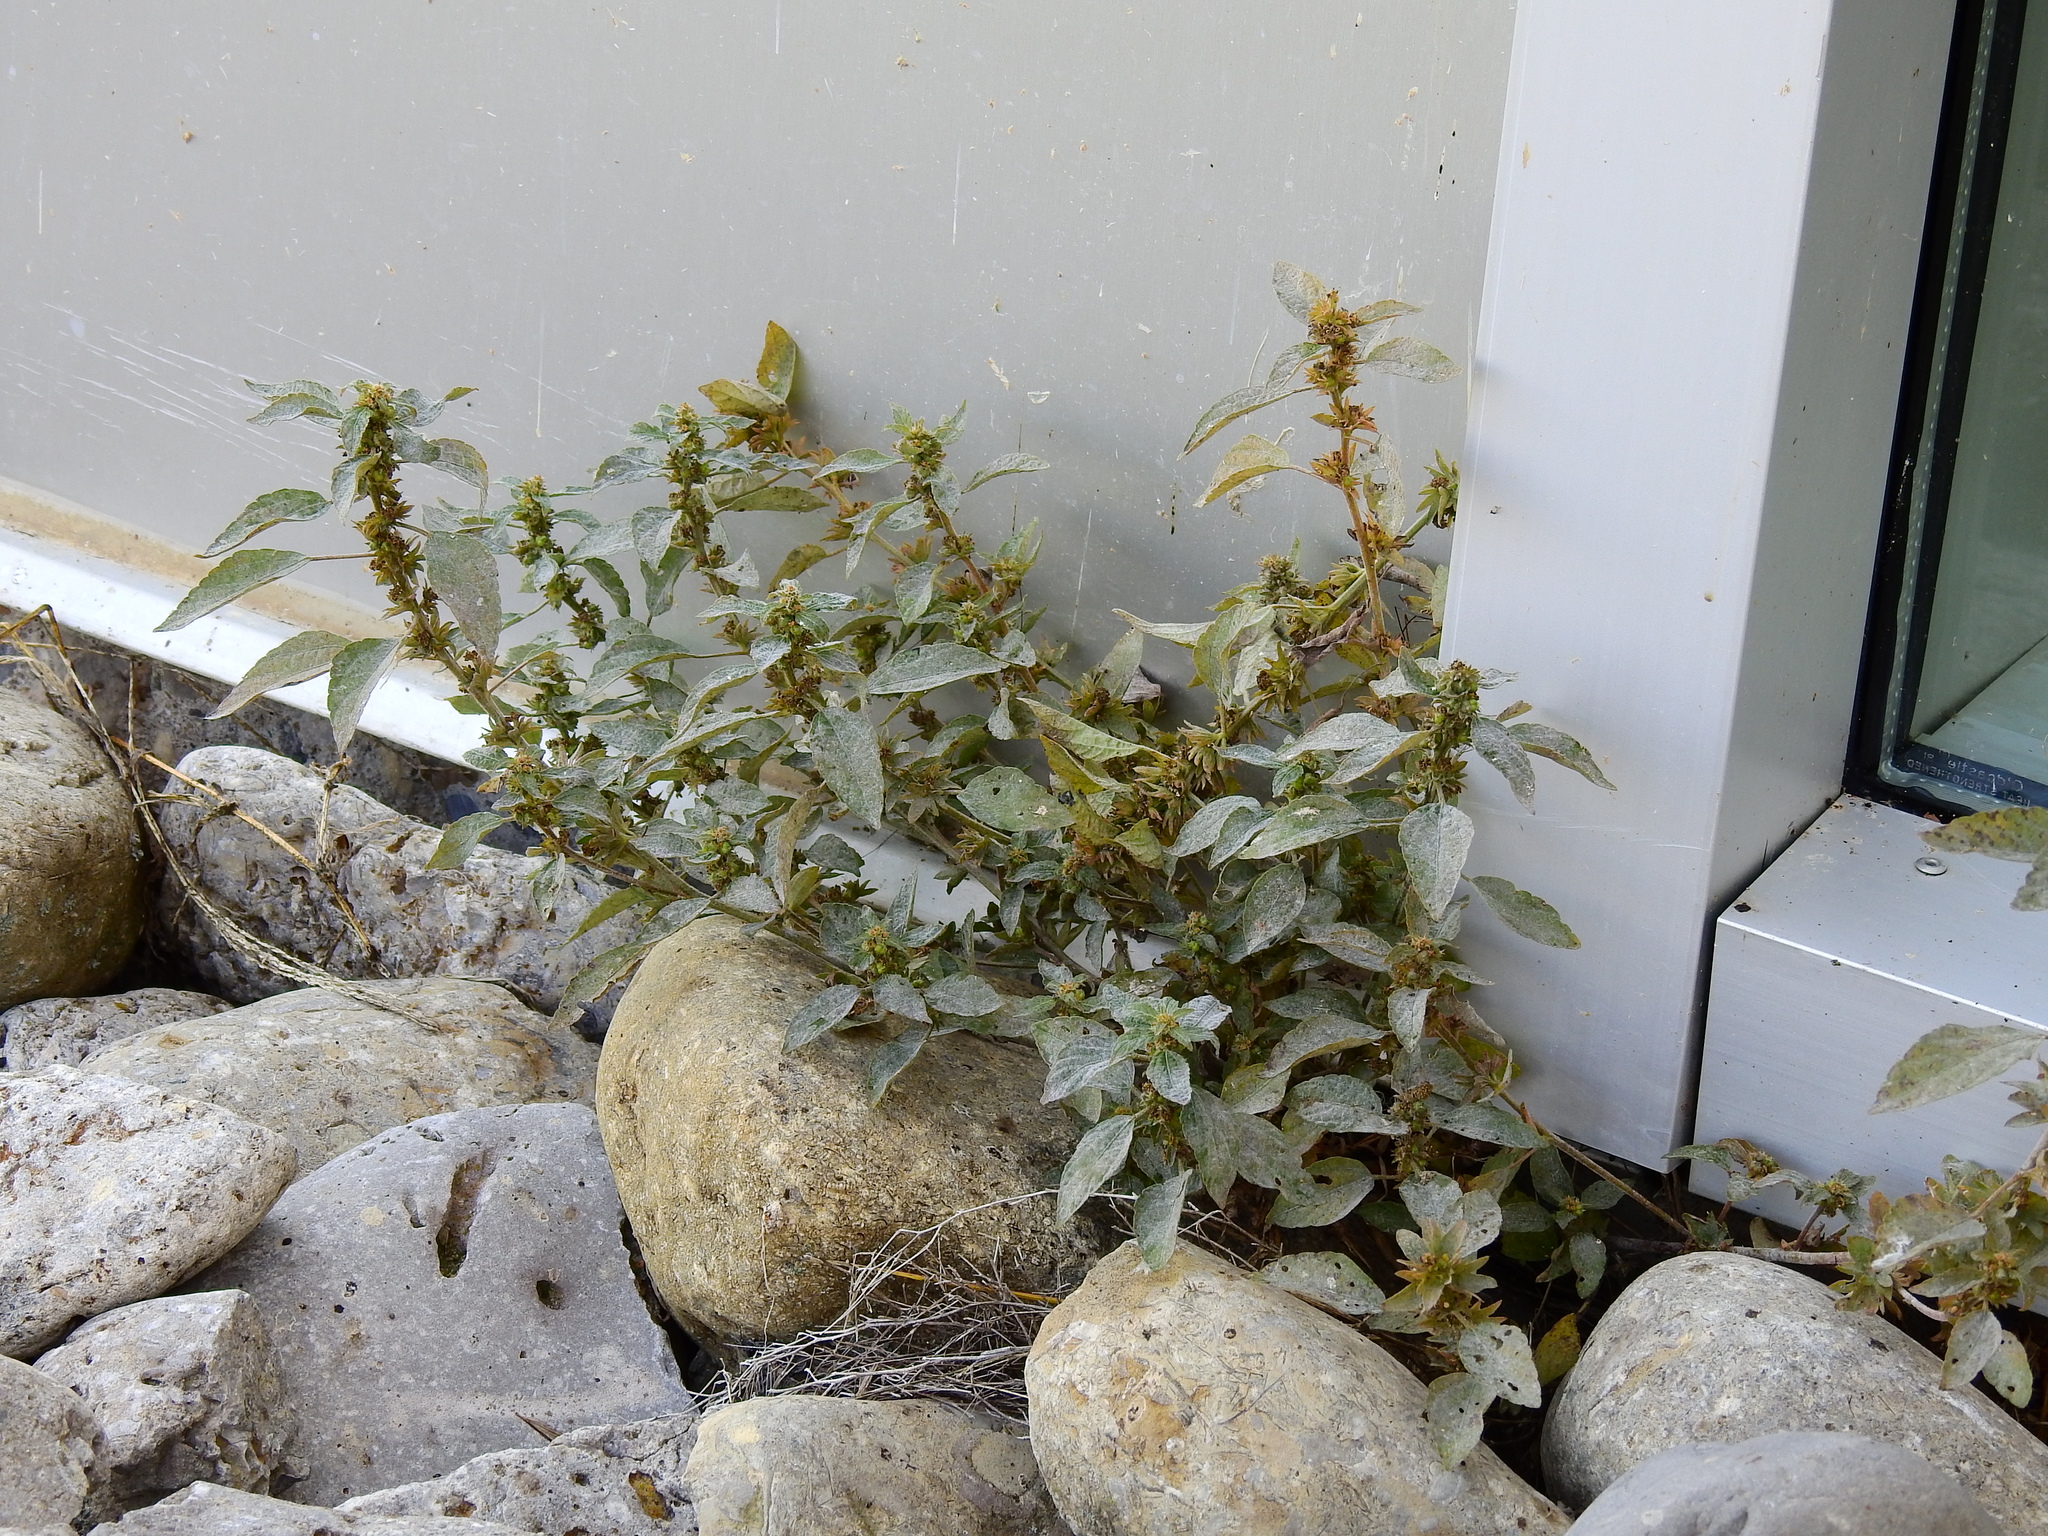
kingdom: Plantae
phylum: Tracheophyta
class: Magnoliopsida
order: Malpighiales
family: Euphorbiaceae
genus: Acalypha
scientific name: Acalypha rhomboidea
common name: Rhombic copperleaf
